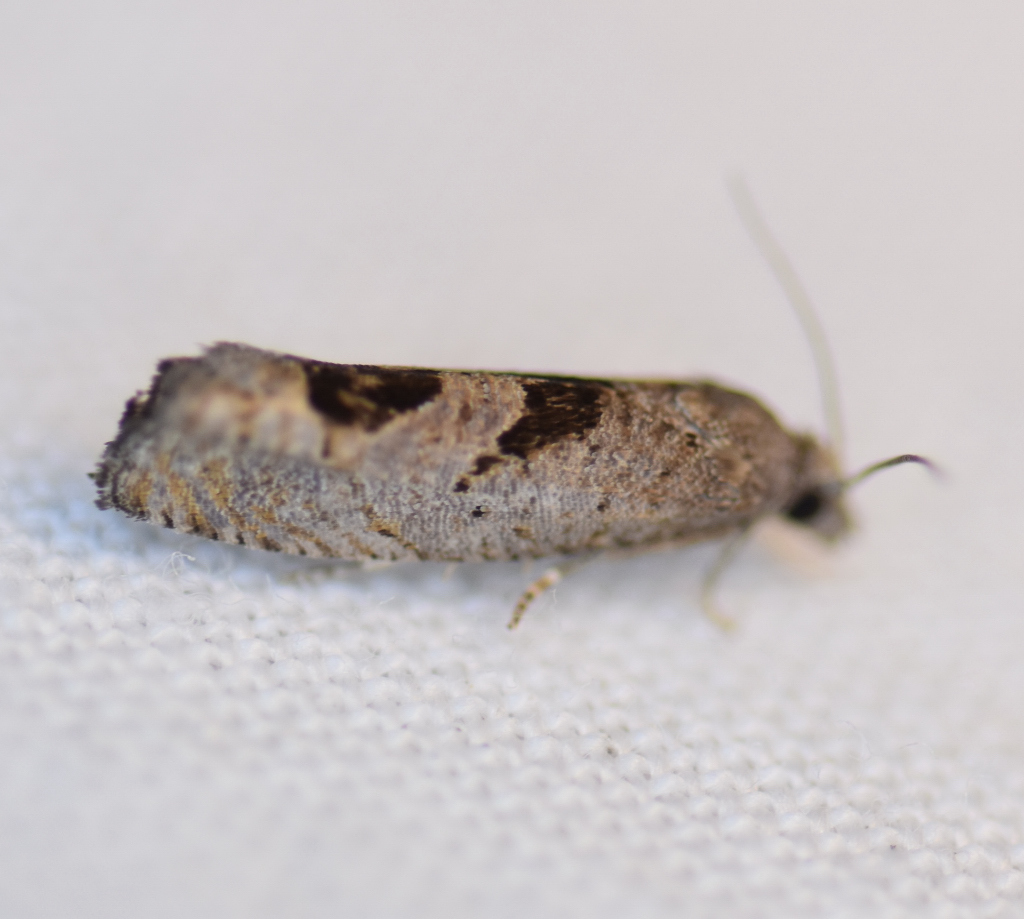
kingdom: Animalia
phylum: Arthropoda
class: Insecta
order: Lepidoptera
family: Tortricidae
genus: Eucosma
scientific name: Eucosma tomonana
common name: Aster-head eucosma moth
